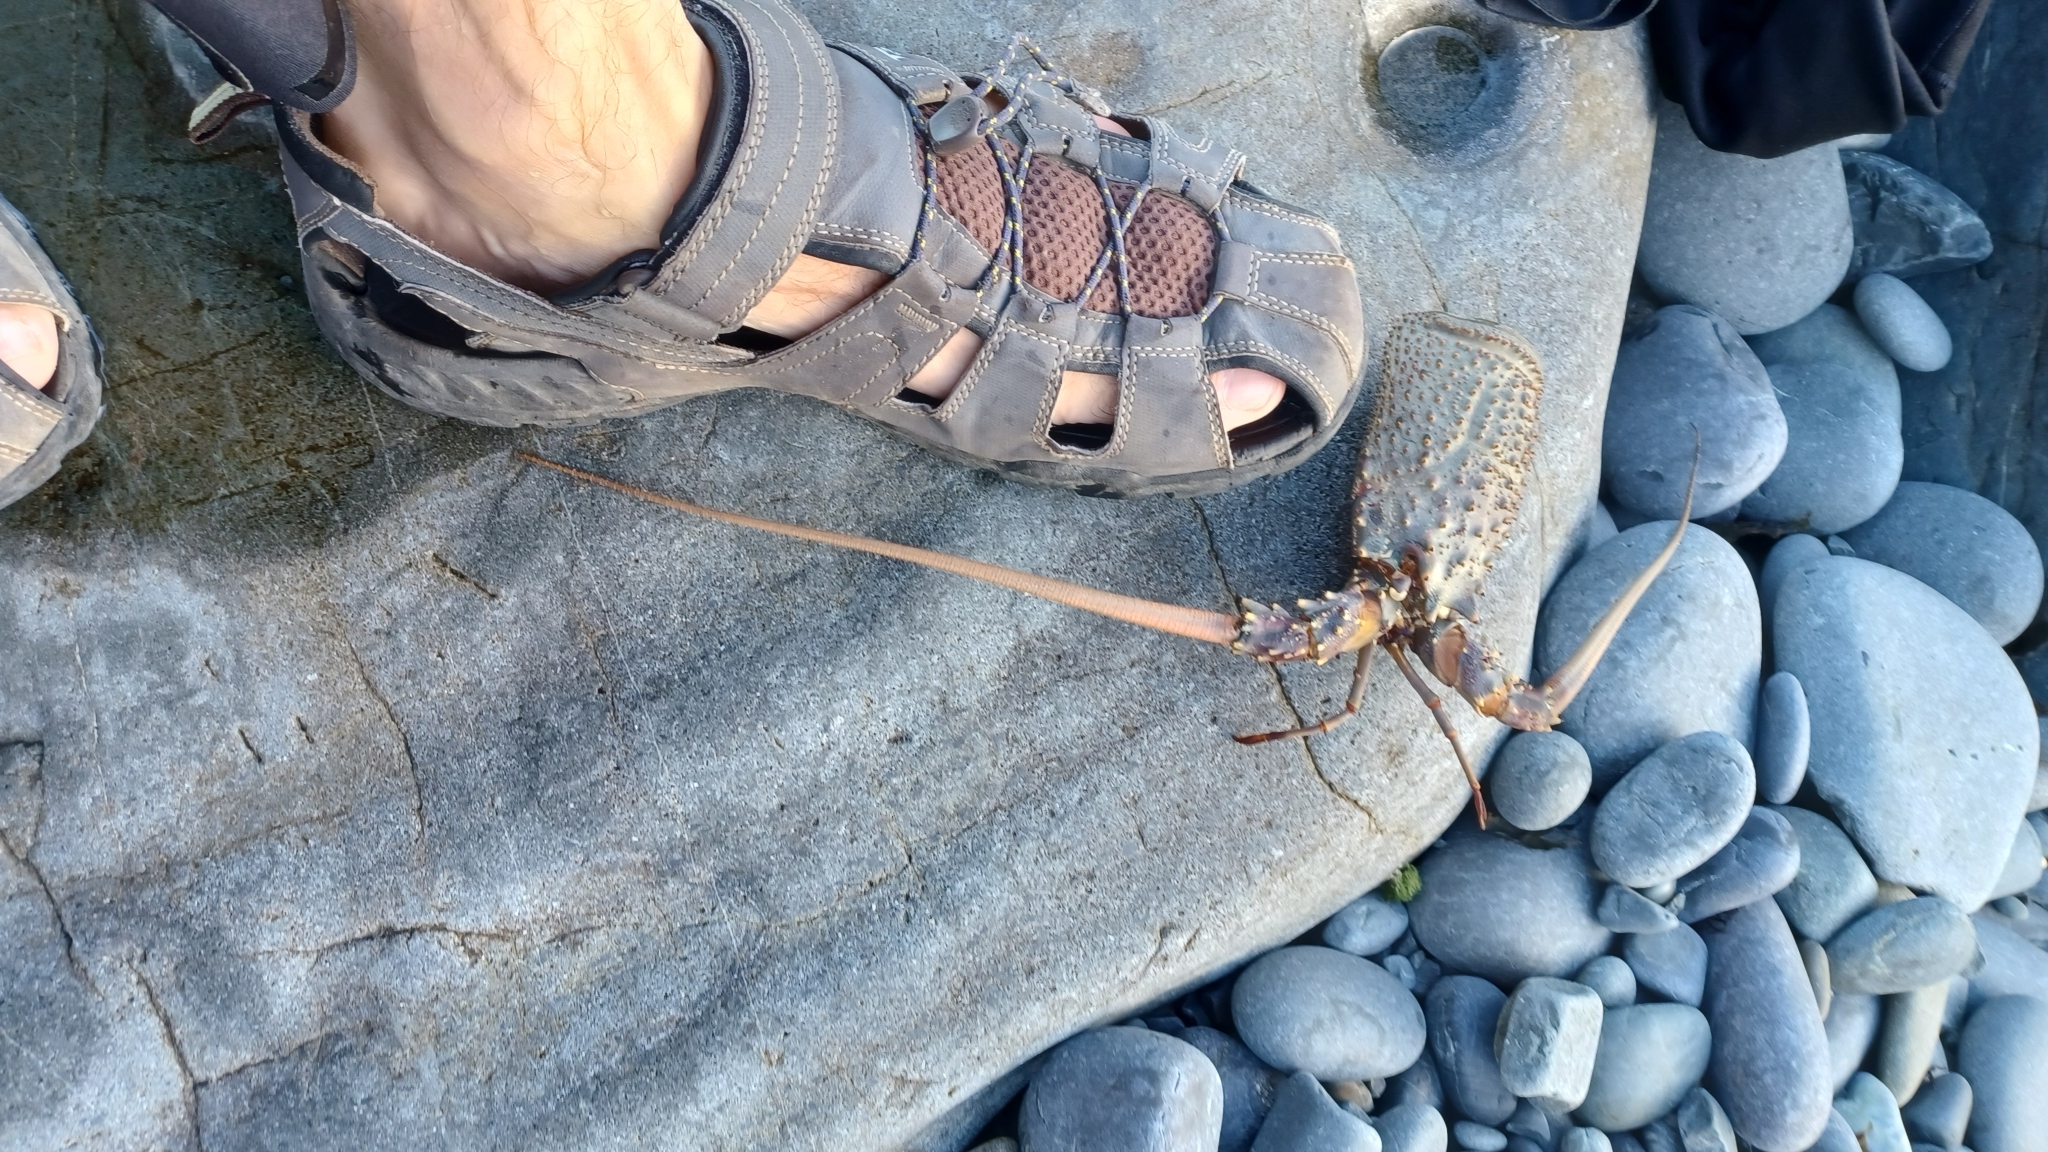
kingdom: Animalia
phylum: Arthropoda
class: Malacostraca
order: Decapoda
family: Palinuridae
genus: Sagmariasus
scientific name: Sagmariasus verreauxi
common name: Green rock lobster
